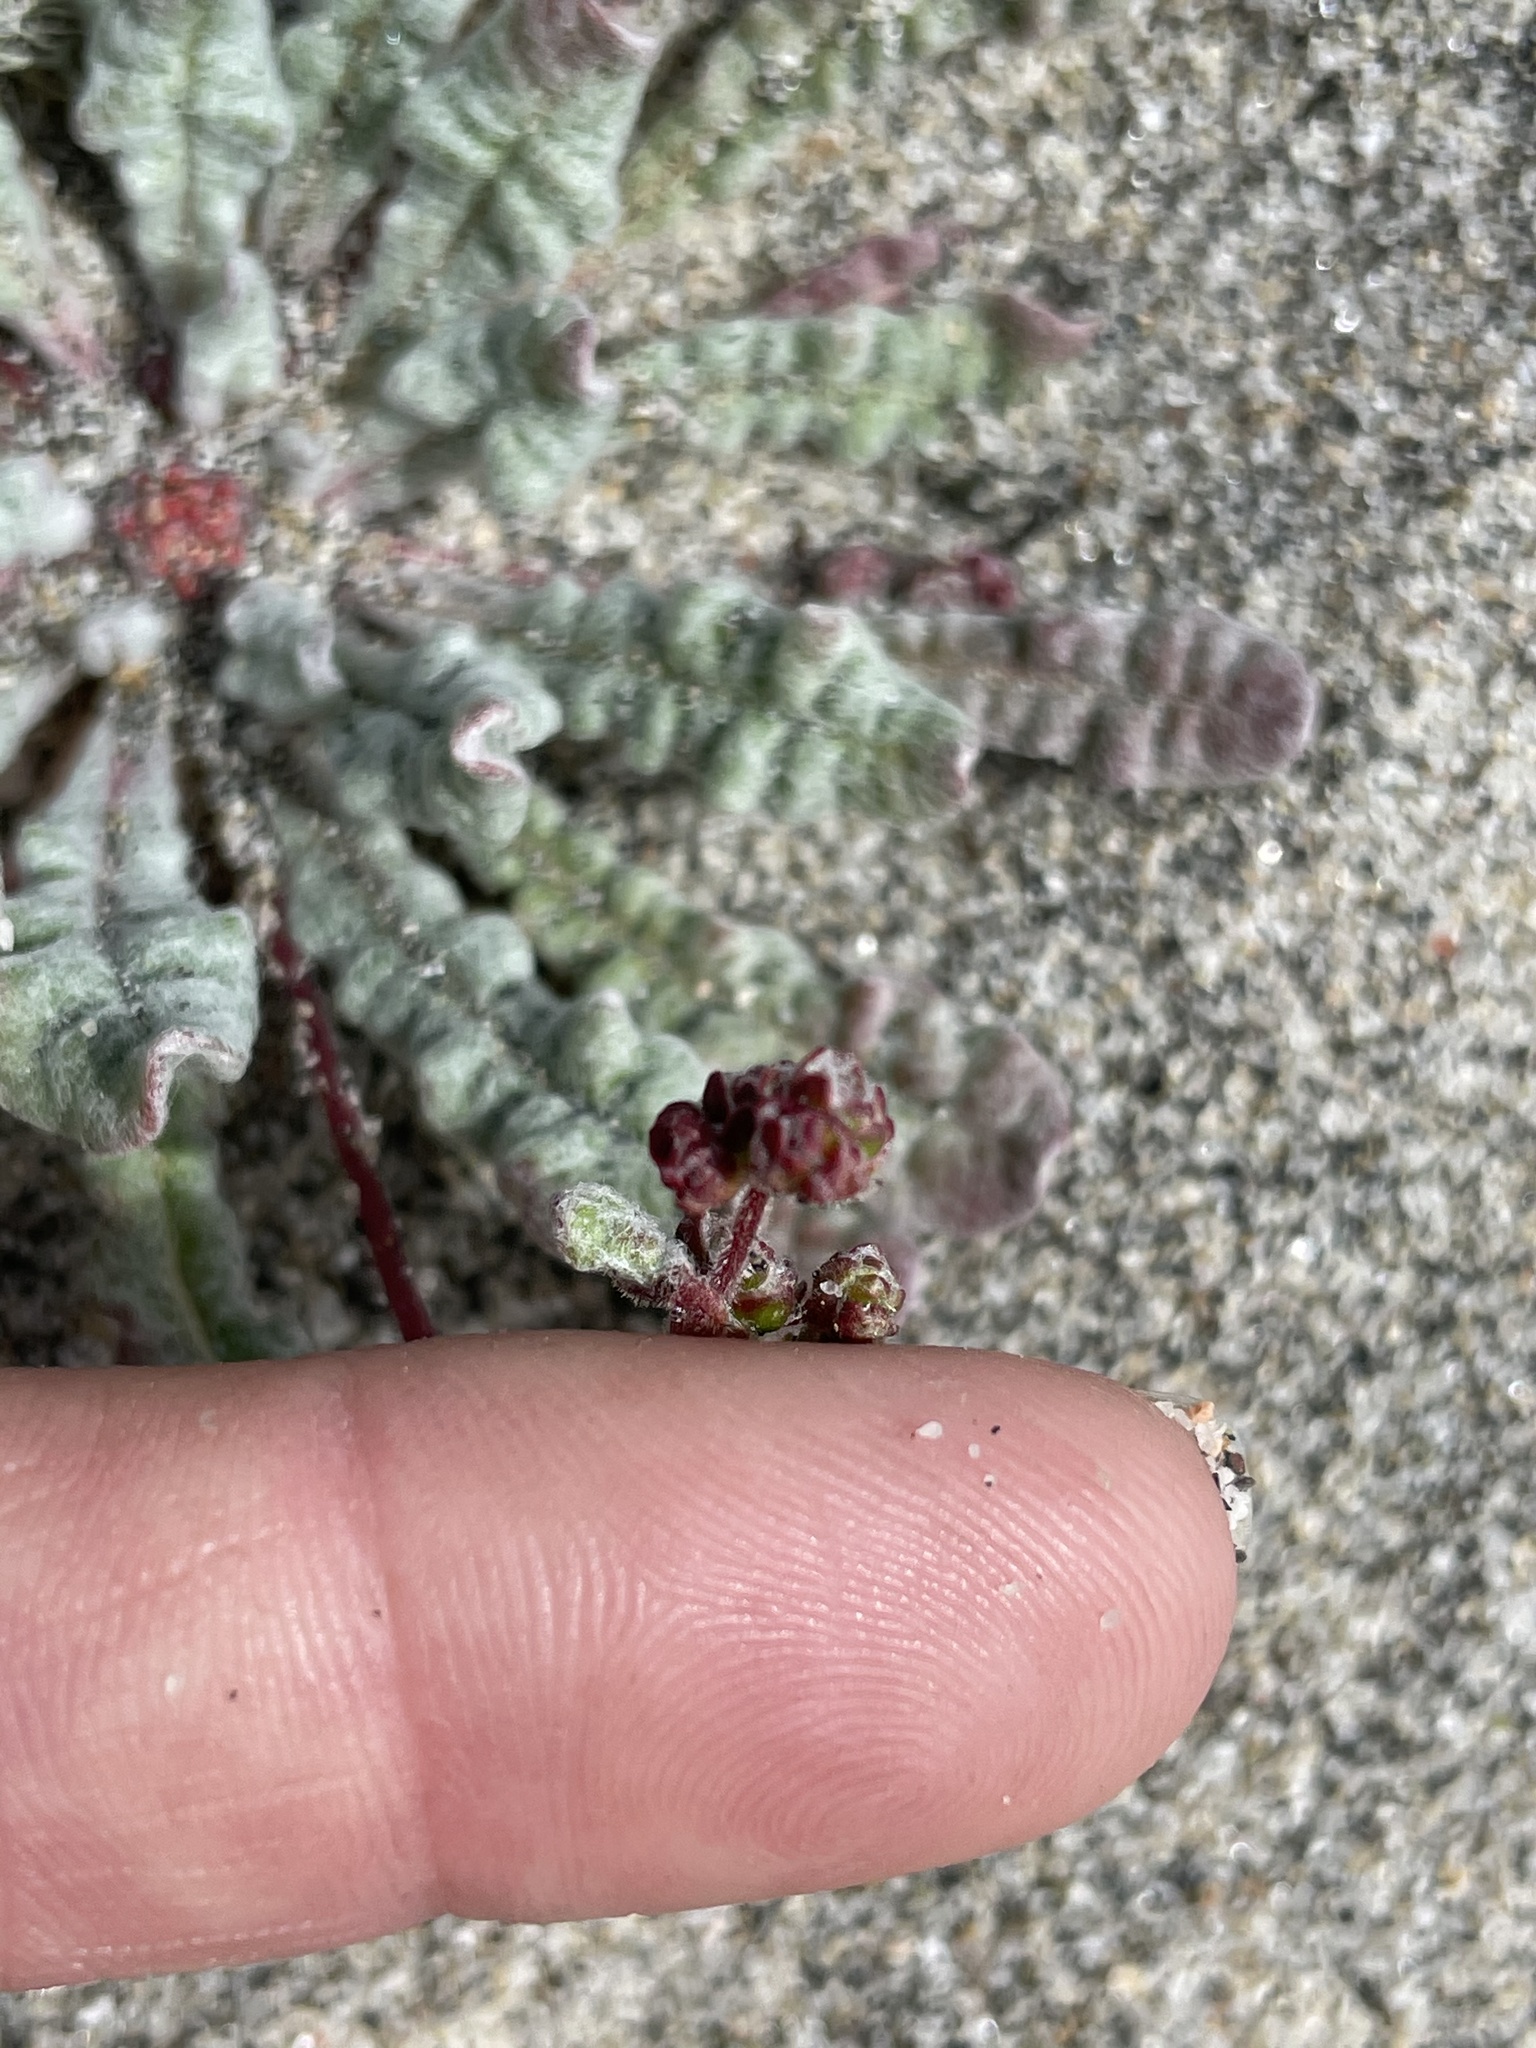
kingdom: Plantae
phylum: Tracheophyta
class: Magnoliopsida
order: Caryophyllales
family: Polygonaceae
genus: Nemacaulis
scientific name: Nemacaulis denudata
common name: Woolly-heads
